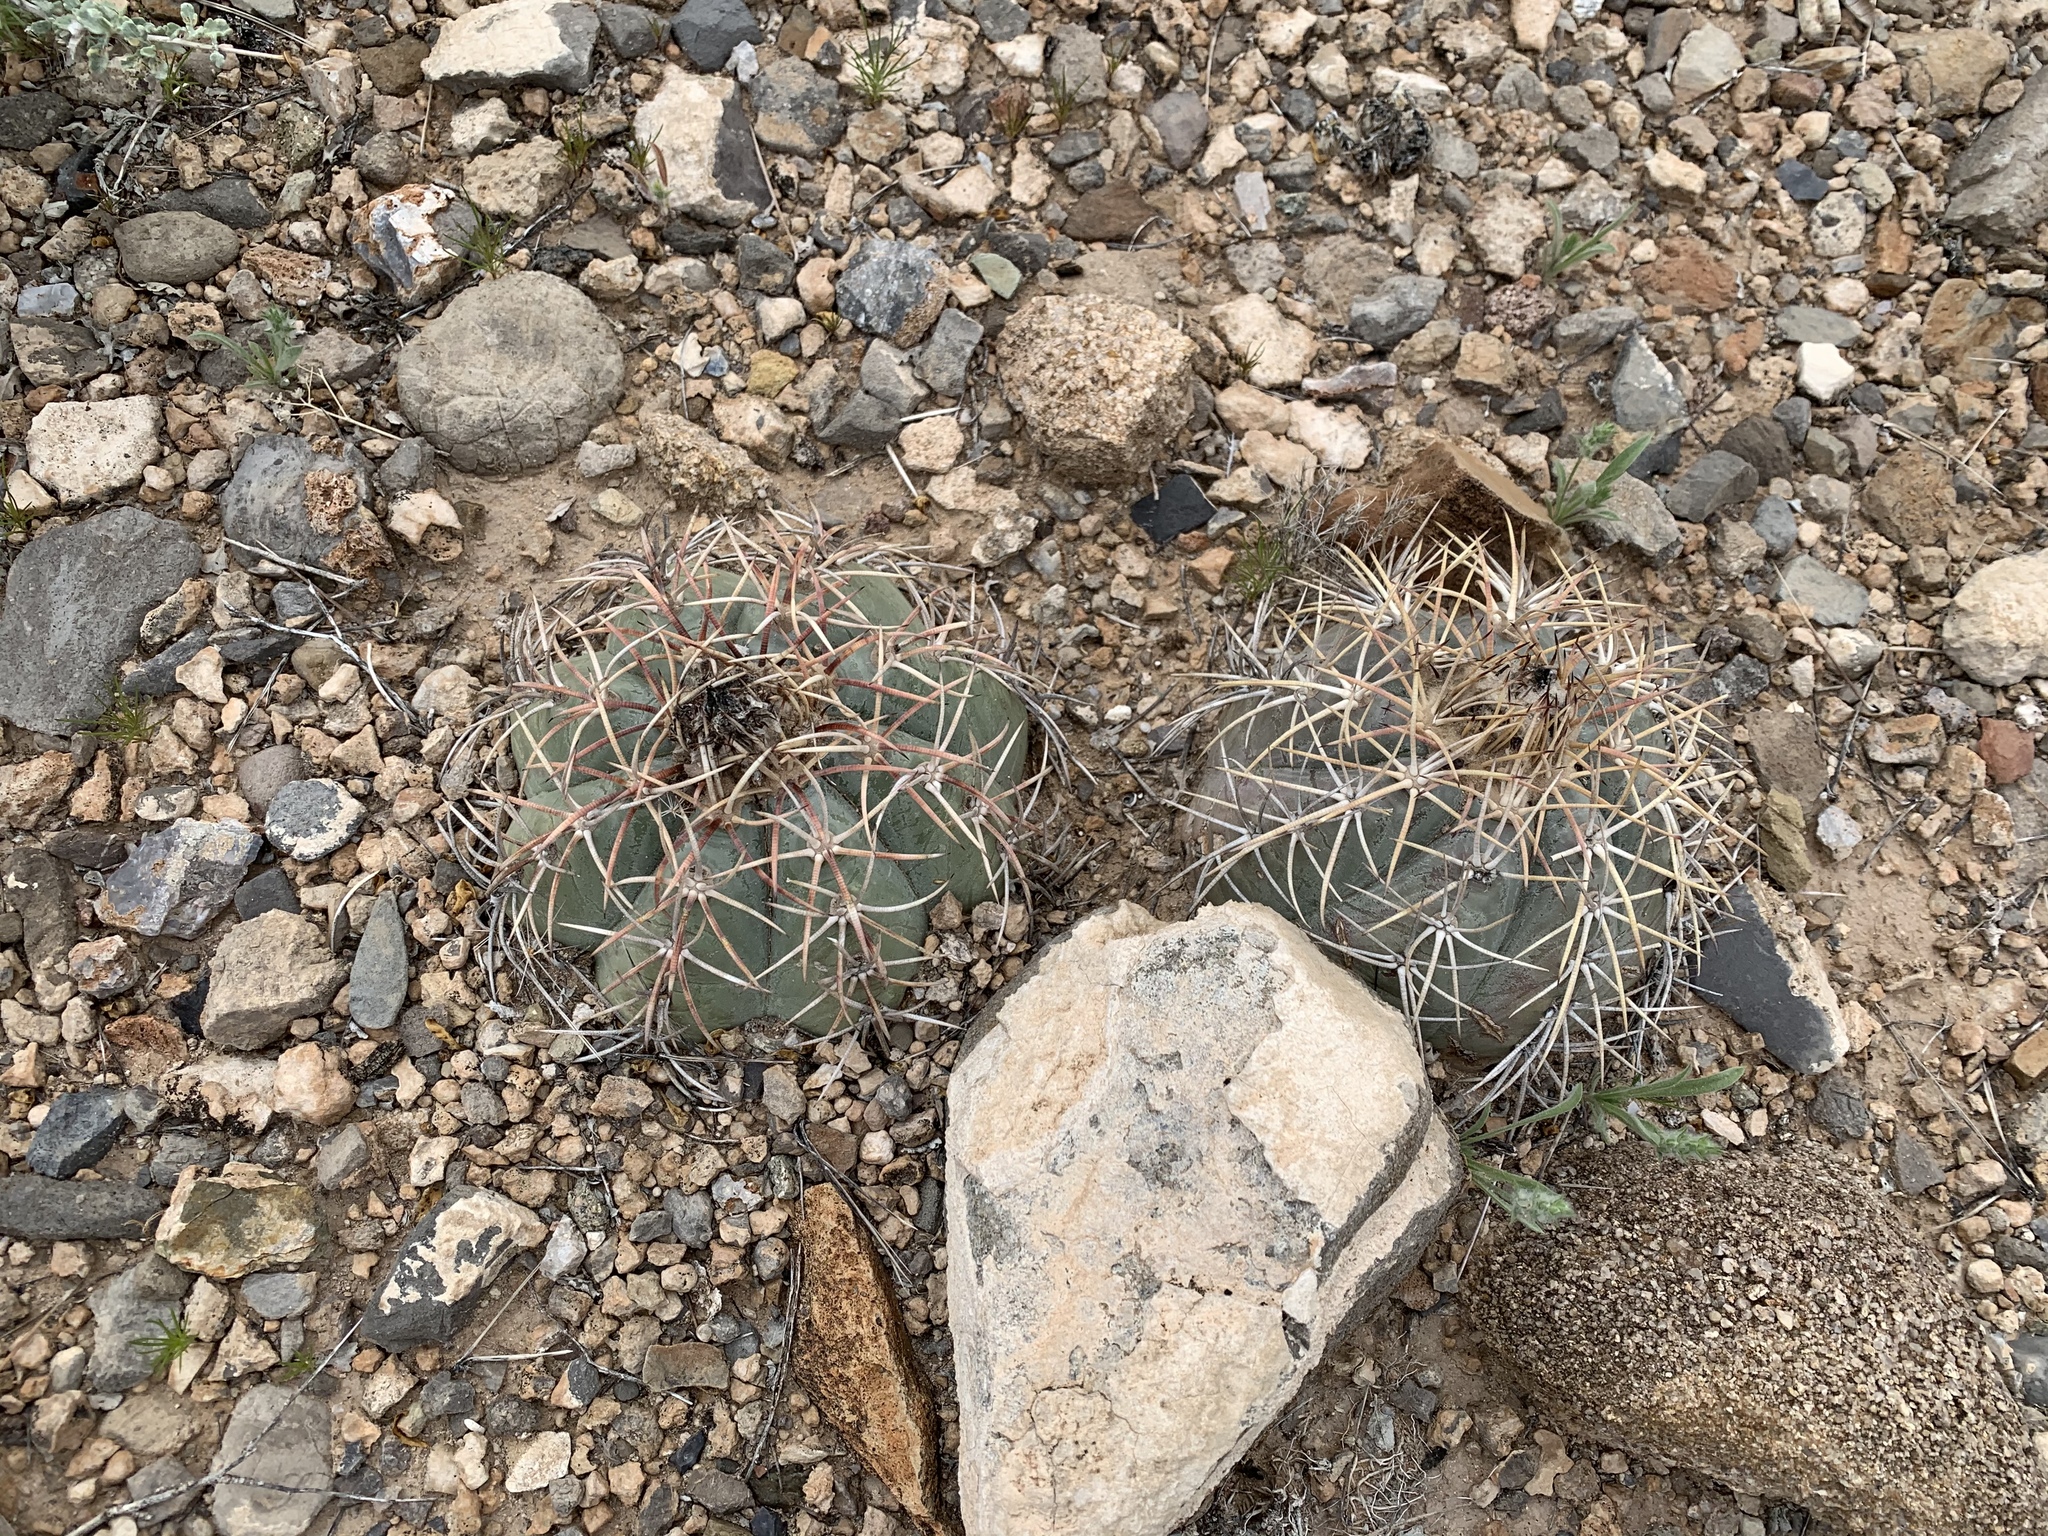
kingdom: Plantae
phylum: Tracheophyta
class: Magnoliopsida
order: Caryophyllales
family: Cactaceae
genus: Echinocactus
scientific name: Echinocactus horizonthalonius
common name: Devilshead
